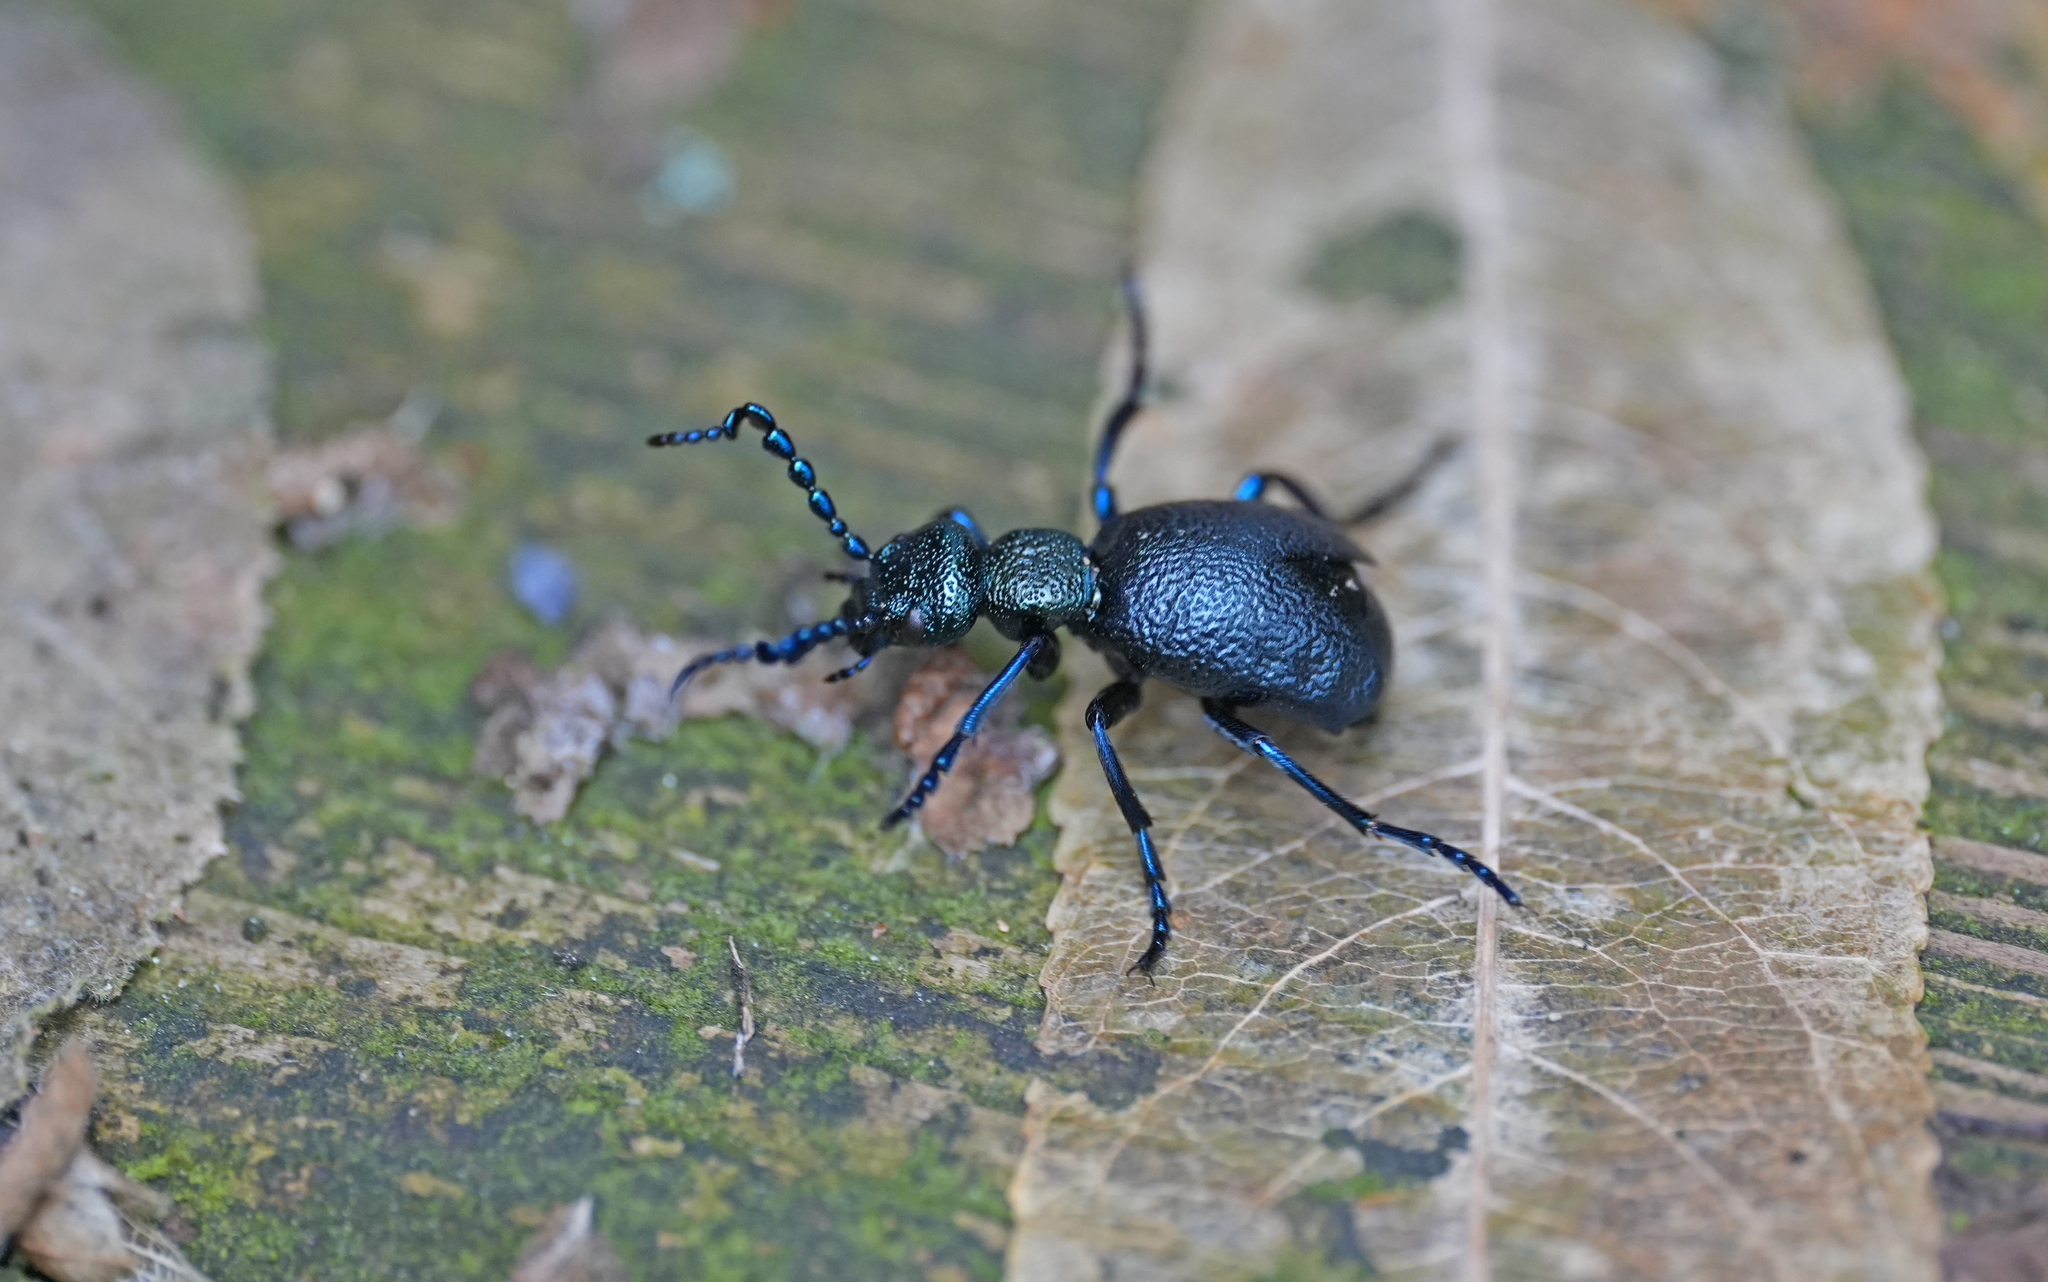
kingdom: Animalia
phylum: Arthropoda
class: Insecta
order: Coleoptera
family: Meloidae
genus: Meloe
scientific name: Meloe proscarabaeus
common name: Black oil-beetle
